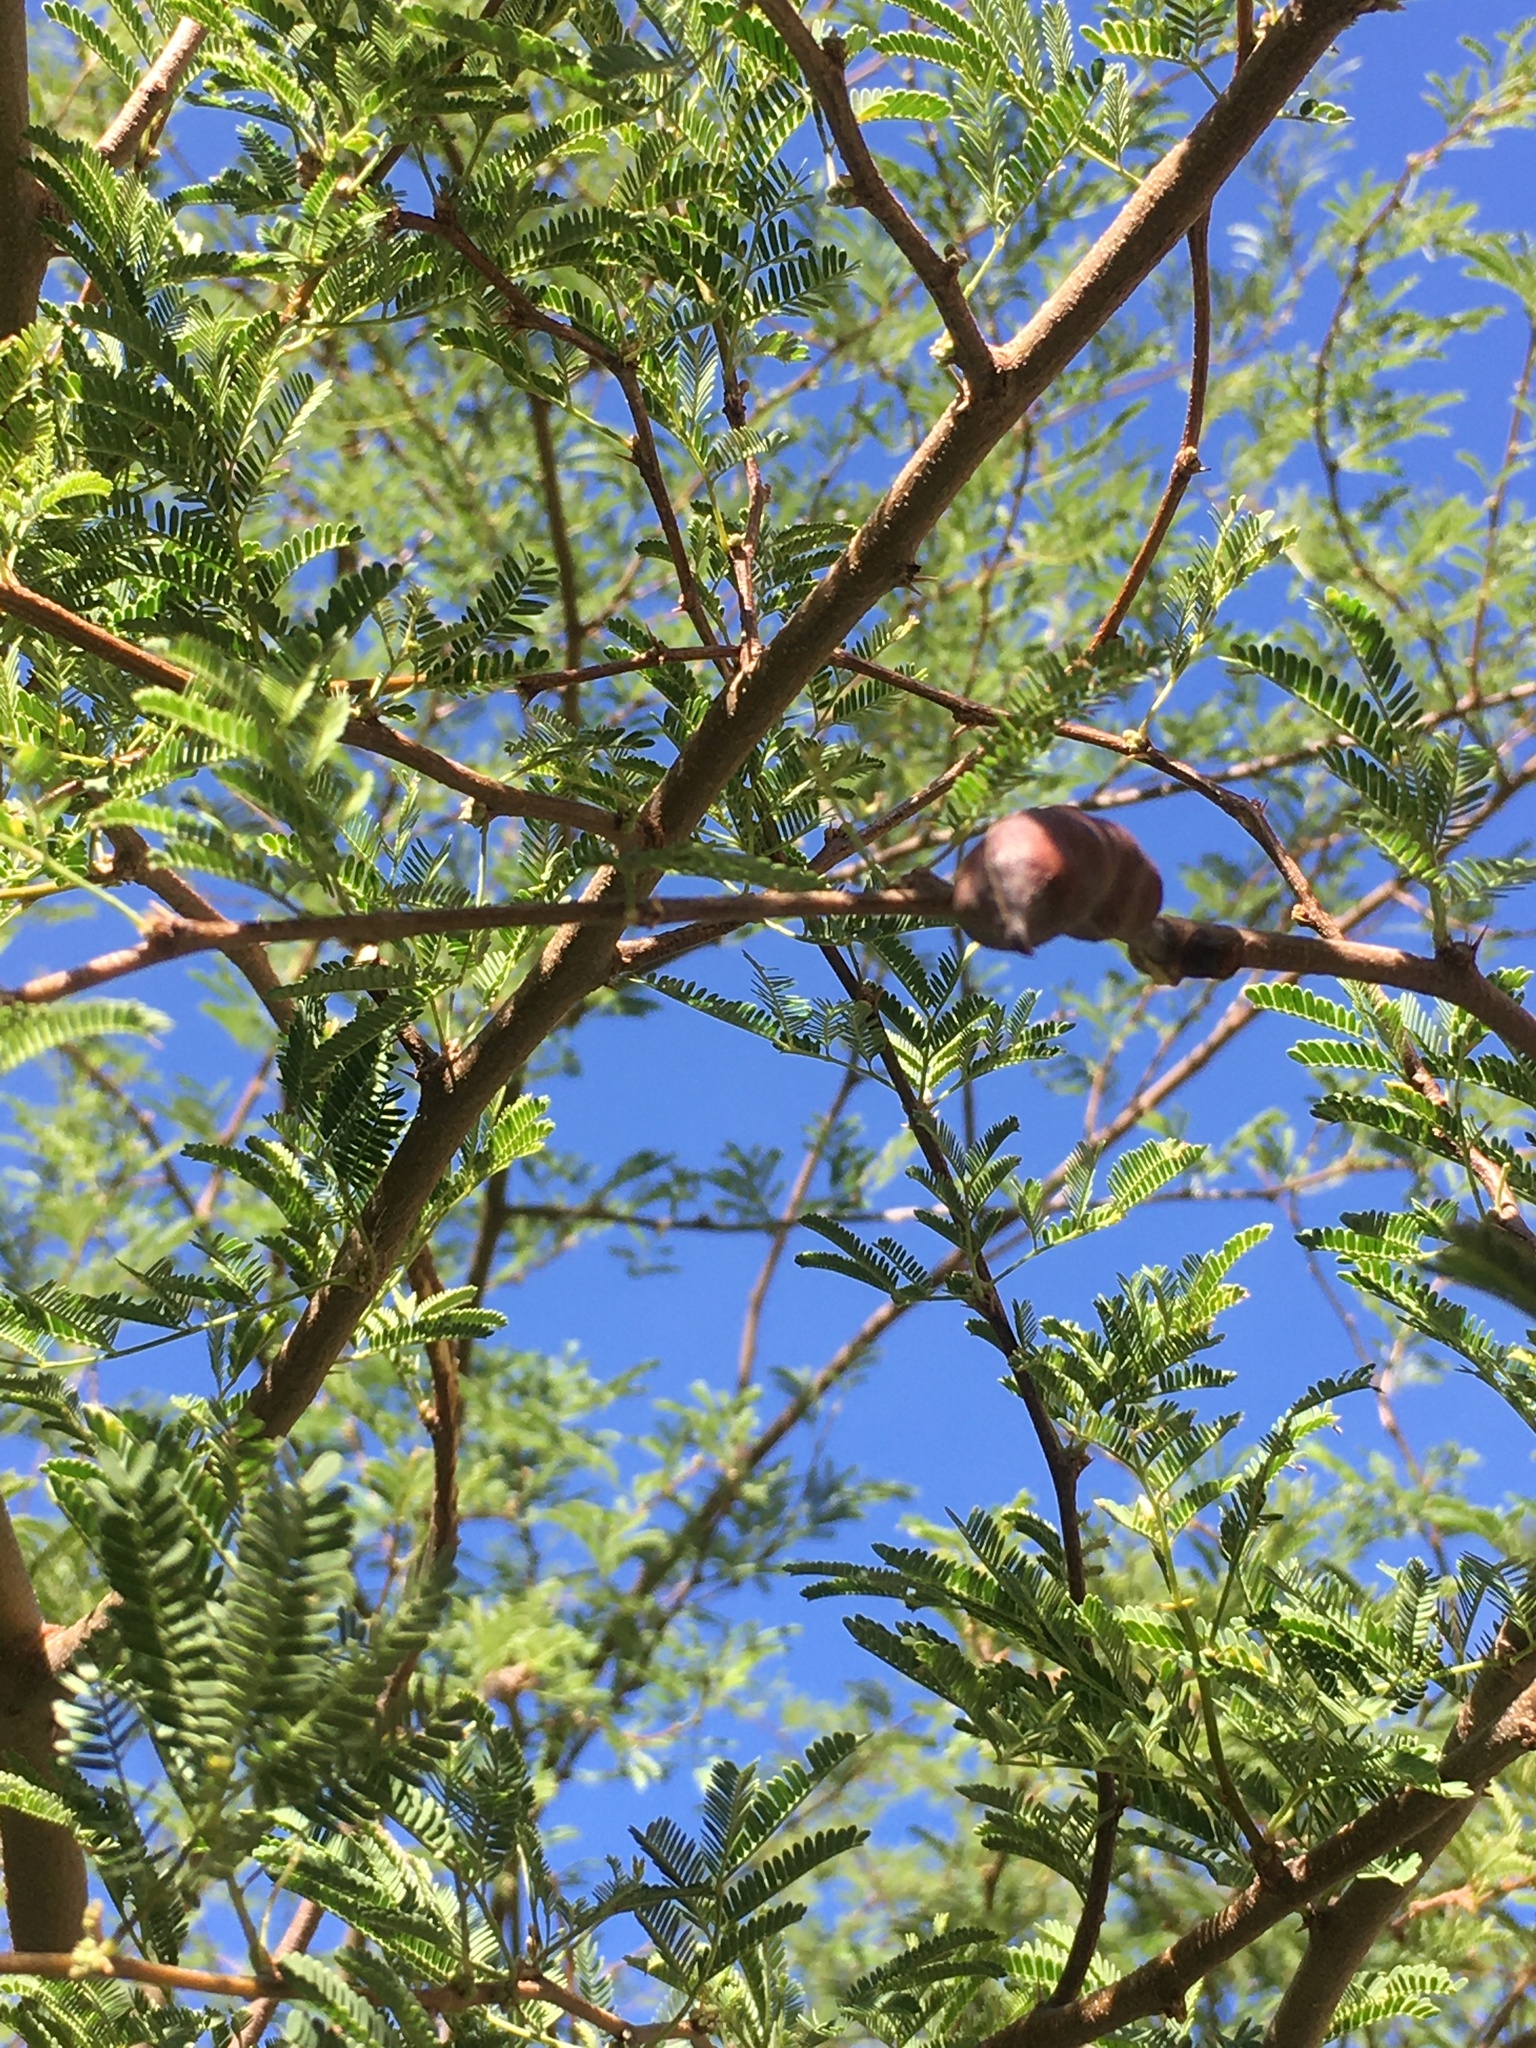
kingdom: Plantae
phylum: Tracheophyta
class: Magnoliopsida
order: Fabales
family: Fabaceae
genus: Vachellia
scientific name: Vachellia farnesiana
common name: Sweet acacia
